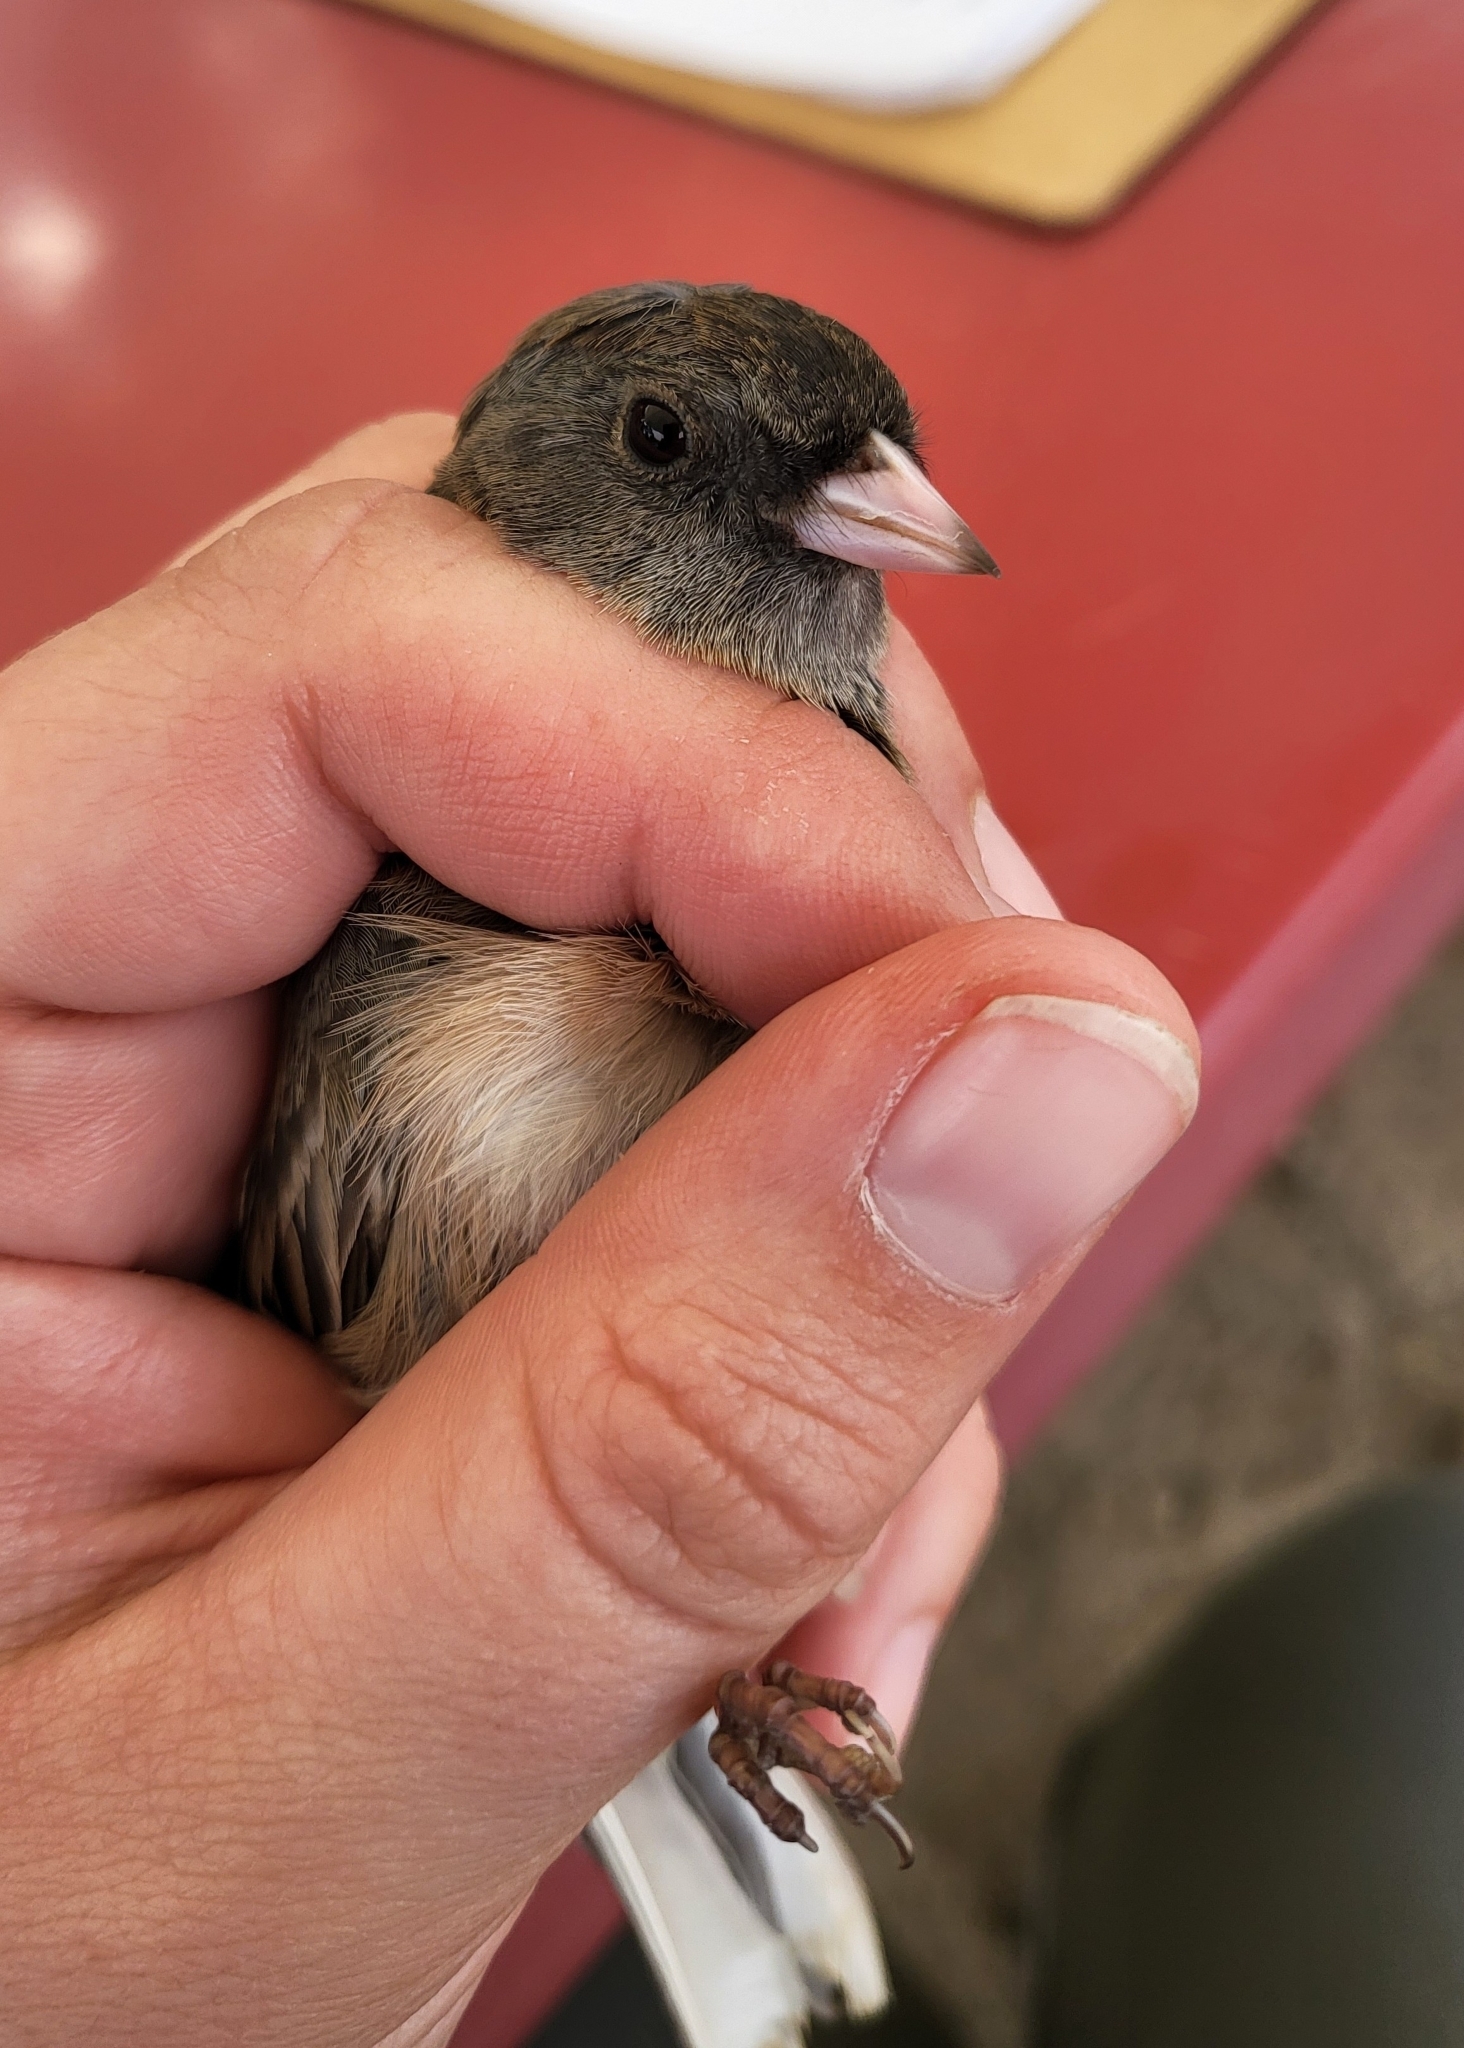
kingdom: Animalia
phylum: Chordata
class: Aves
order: Passeriformes
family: Passerellidae
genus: Junco
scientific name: Junco hyemalis
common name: Dark-eyed junco
